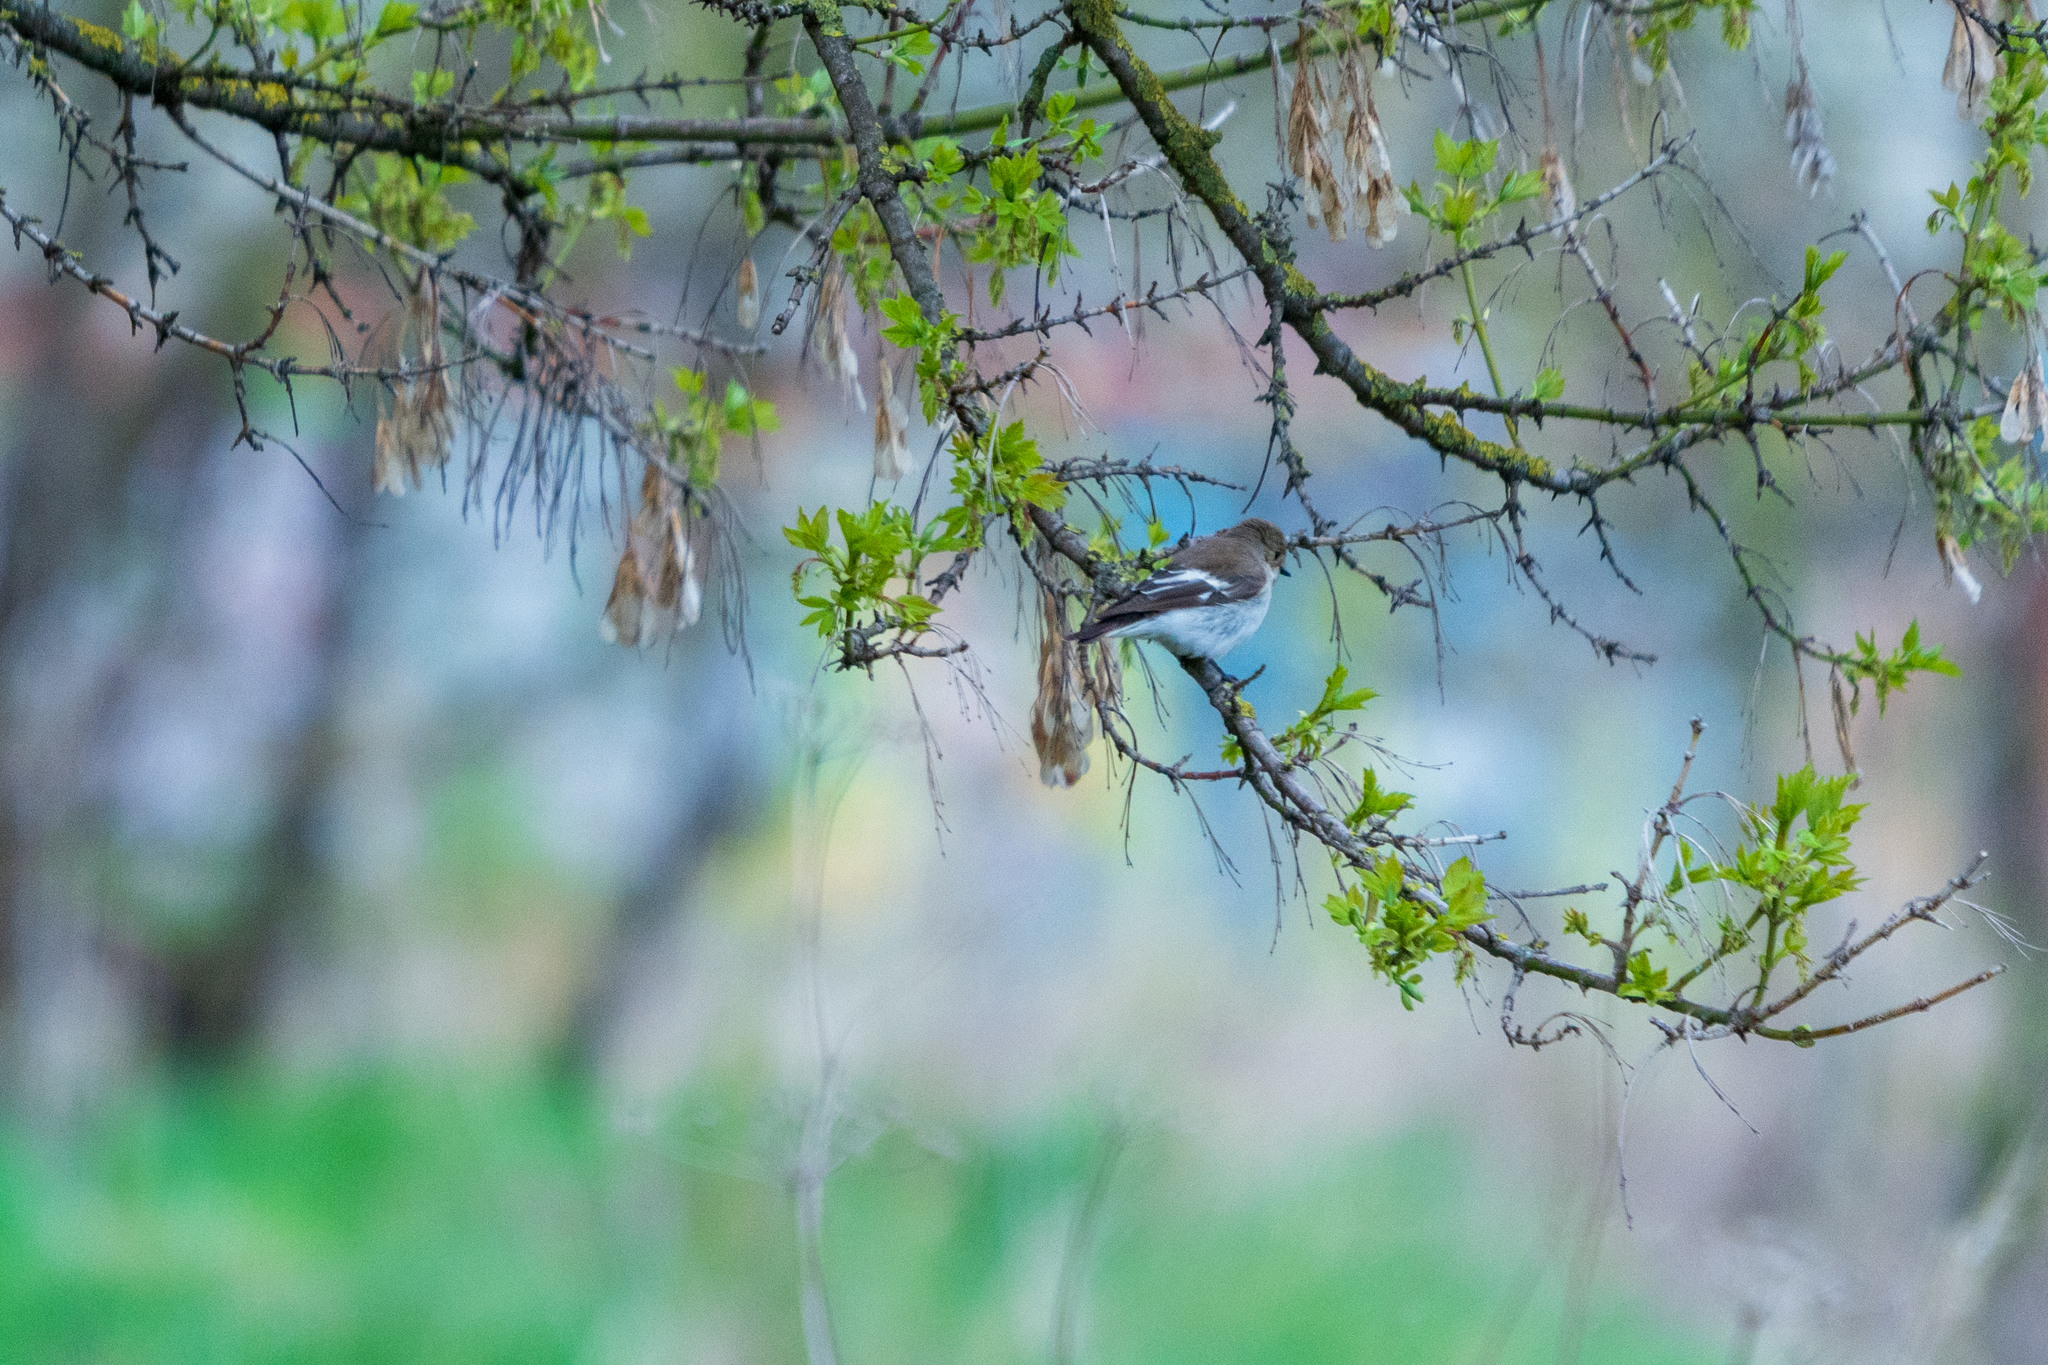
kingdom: Animalia
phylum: Chordata
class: Aves
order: Passeriformes
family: Muscicapidae
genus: Ficedula
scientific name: Ficedula hypoleuca
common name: European pied flycatcher
